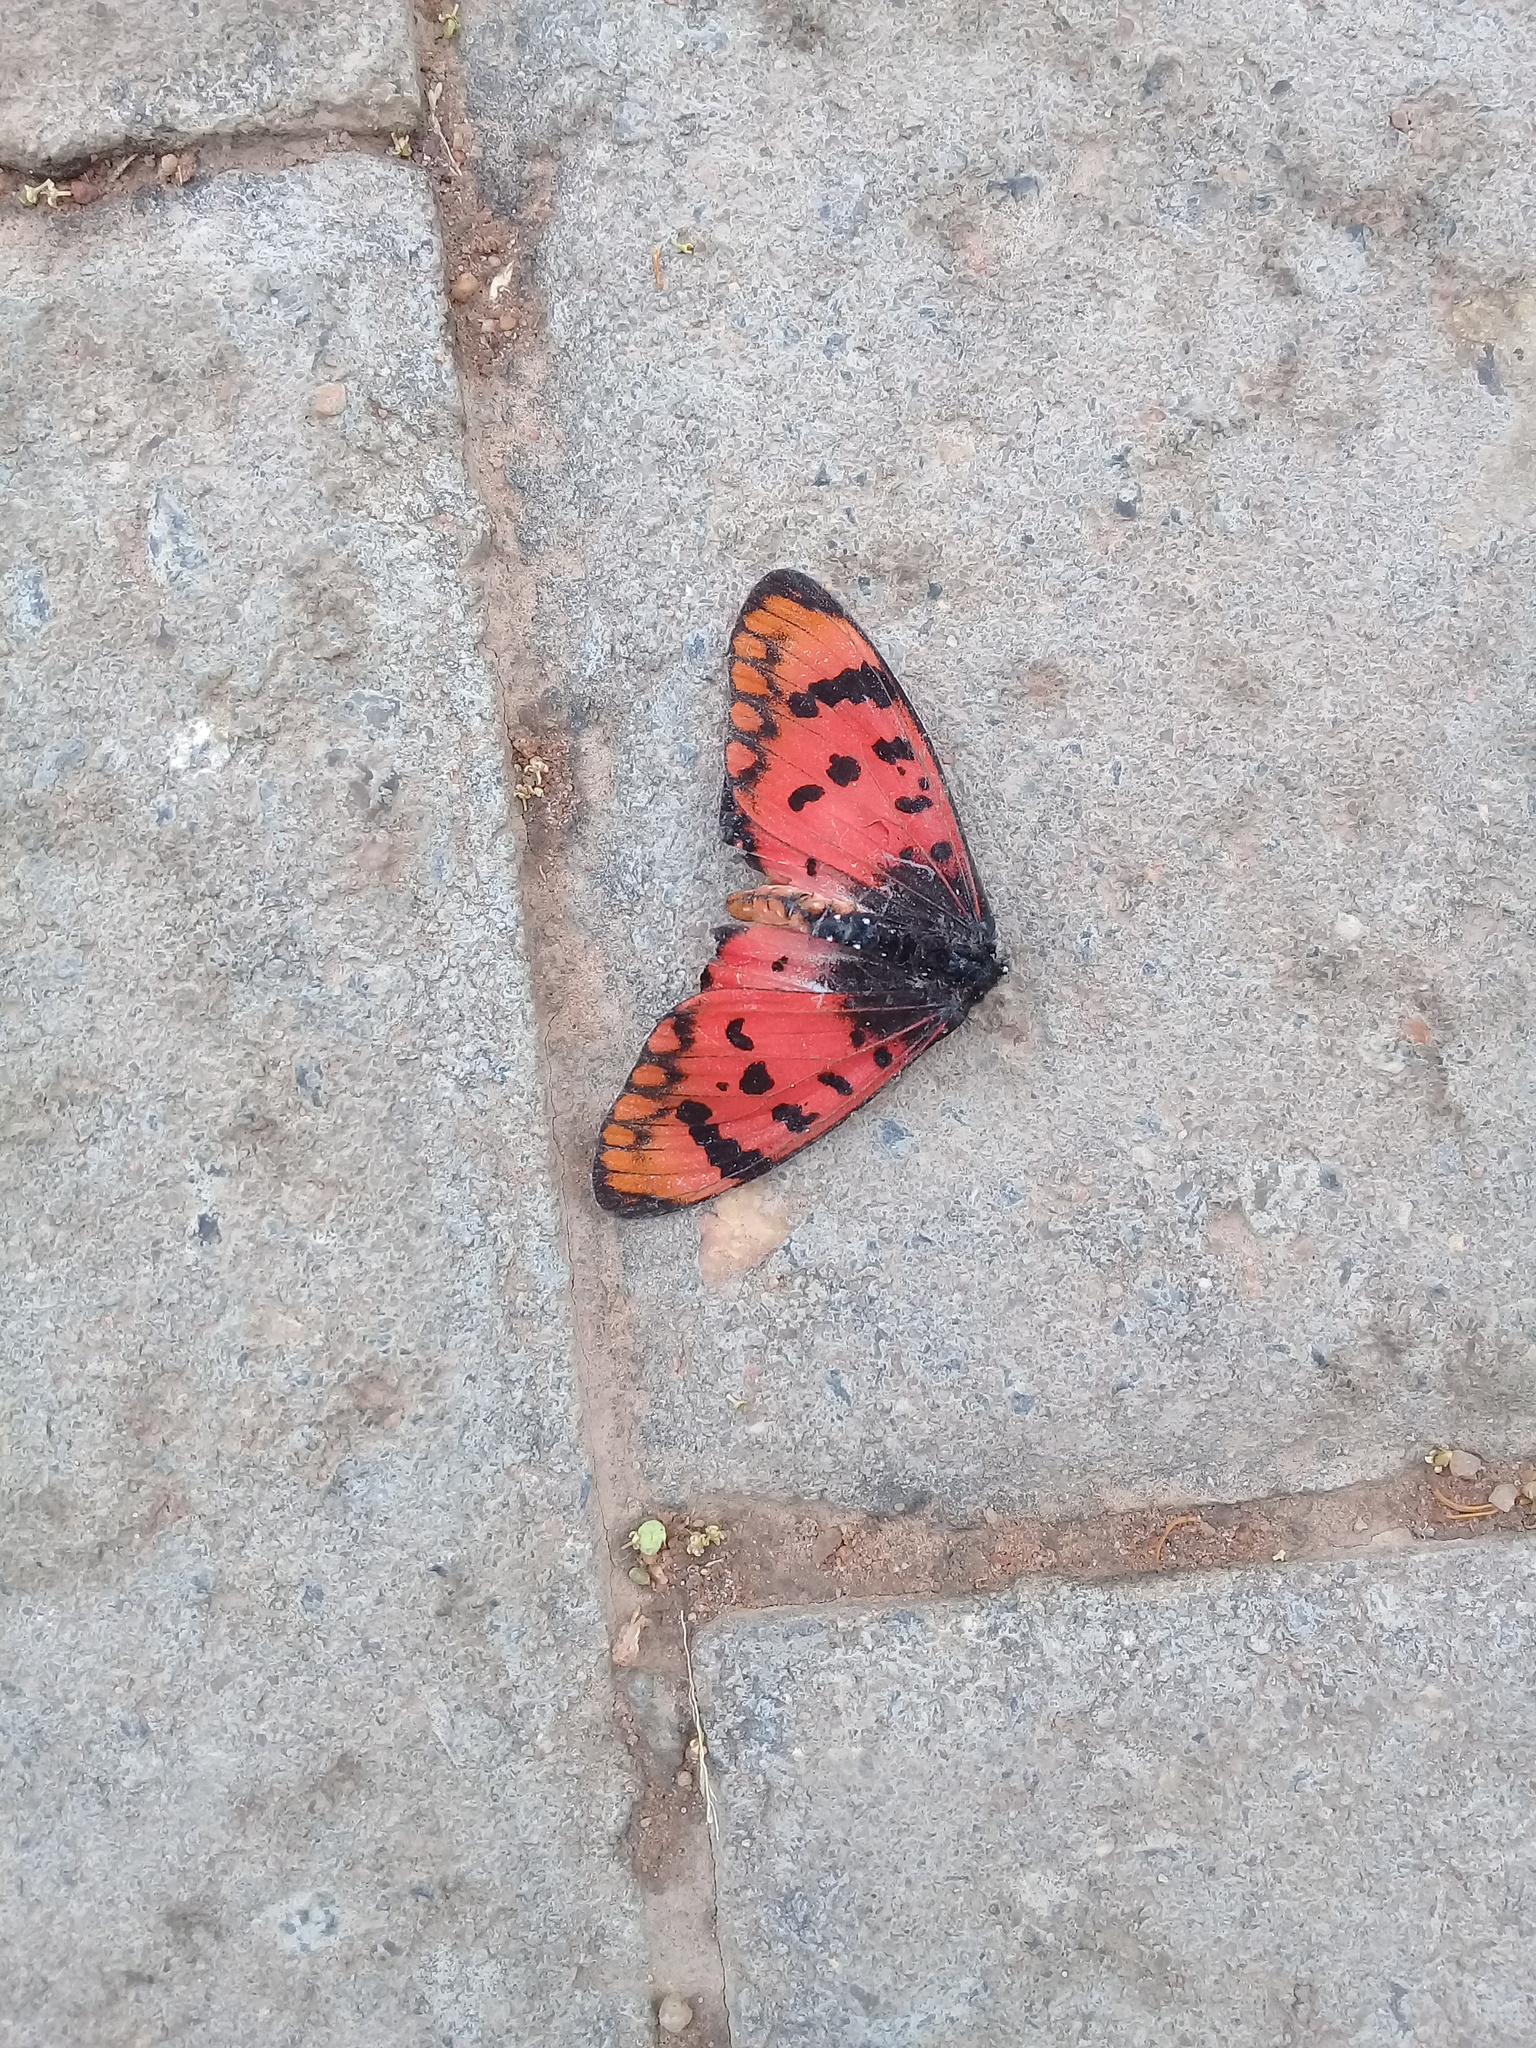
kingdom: Animalia
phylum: Arthropoda
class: Insecta
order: Lepidoptera
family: Nymphalidae
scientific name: Nymphalidae
